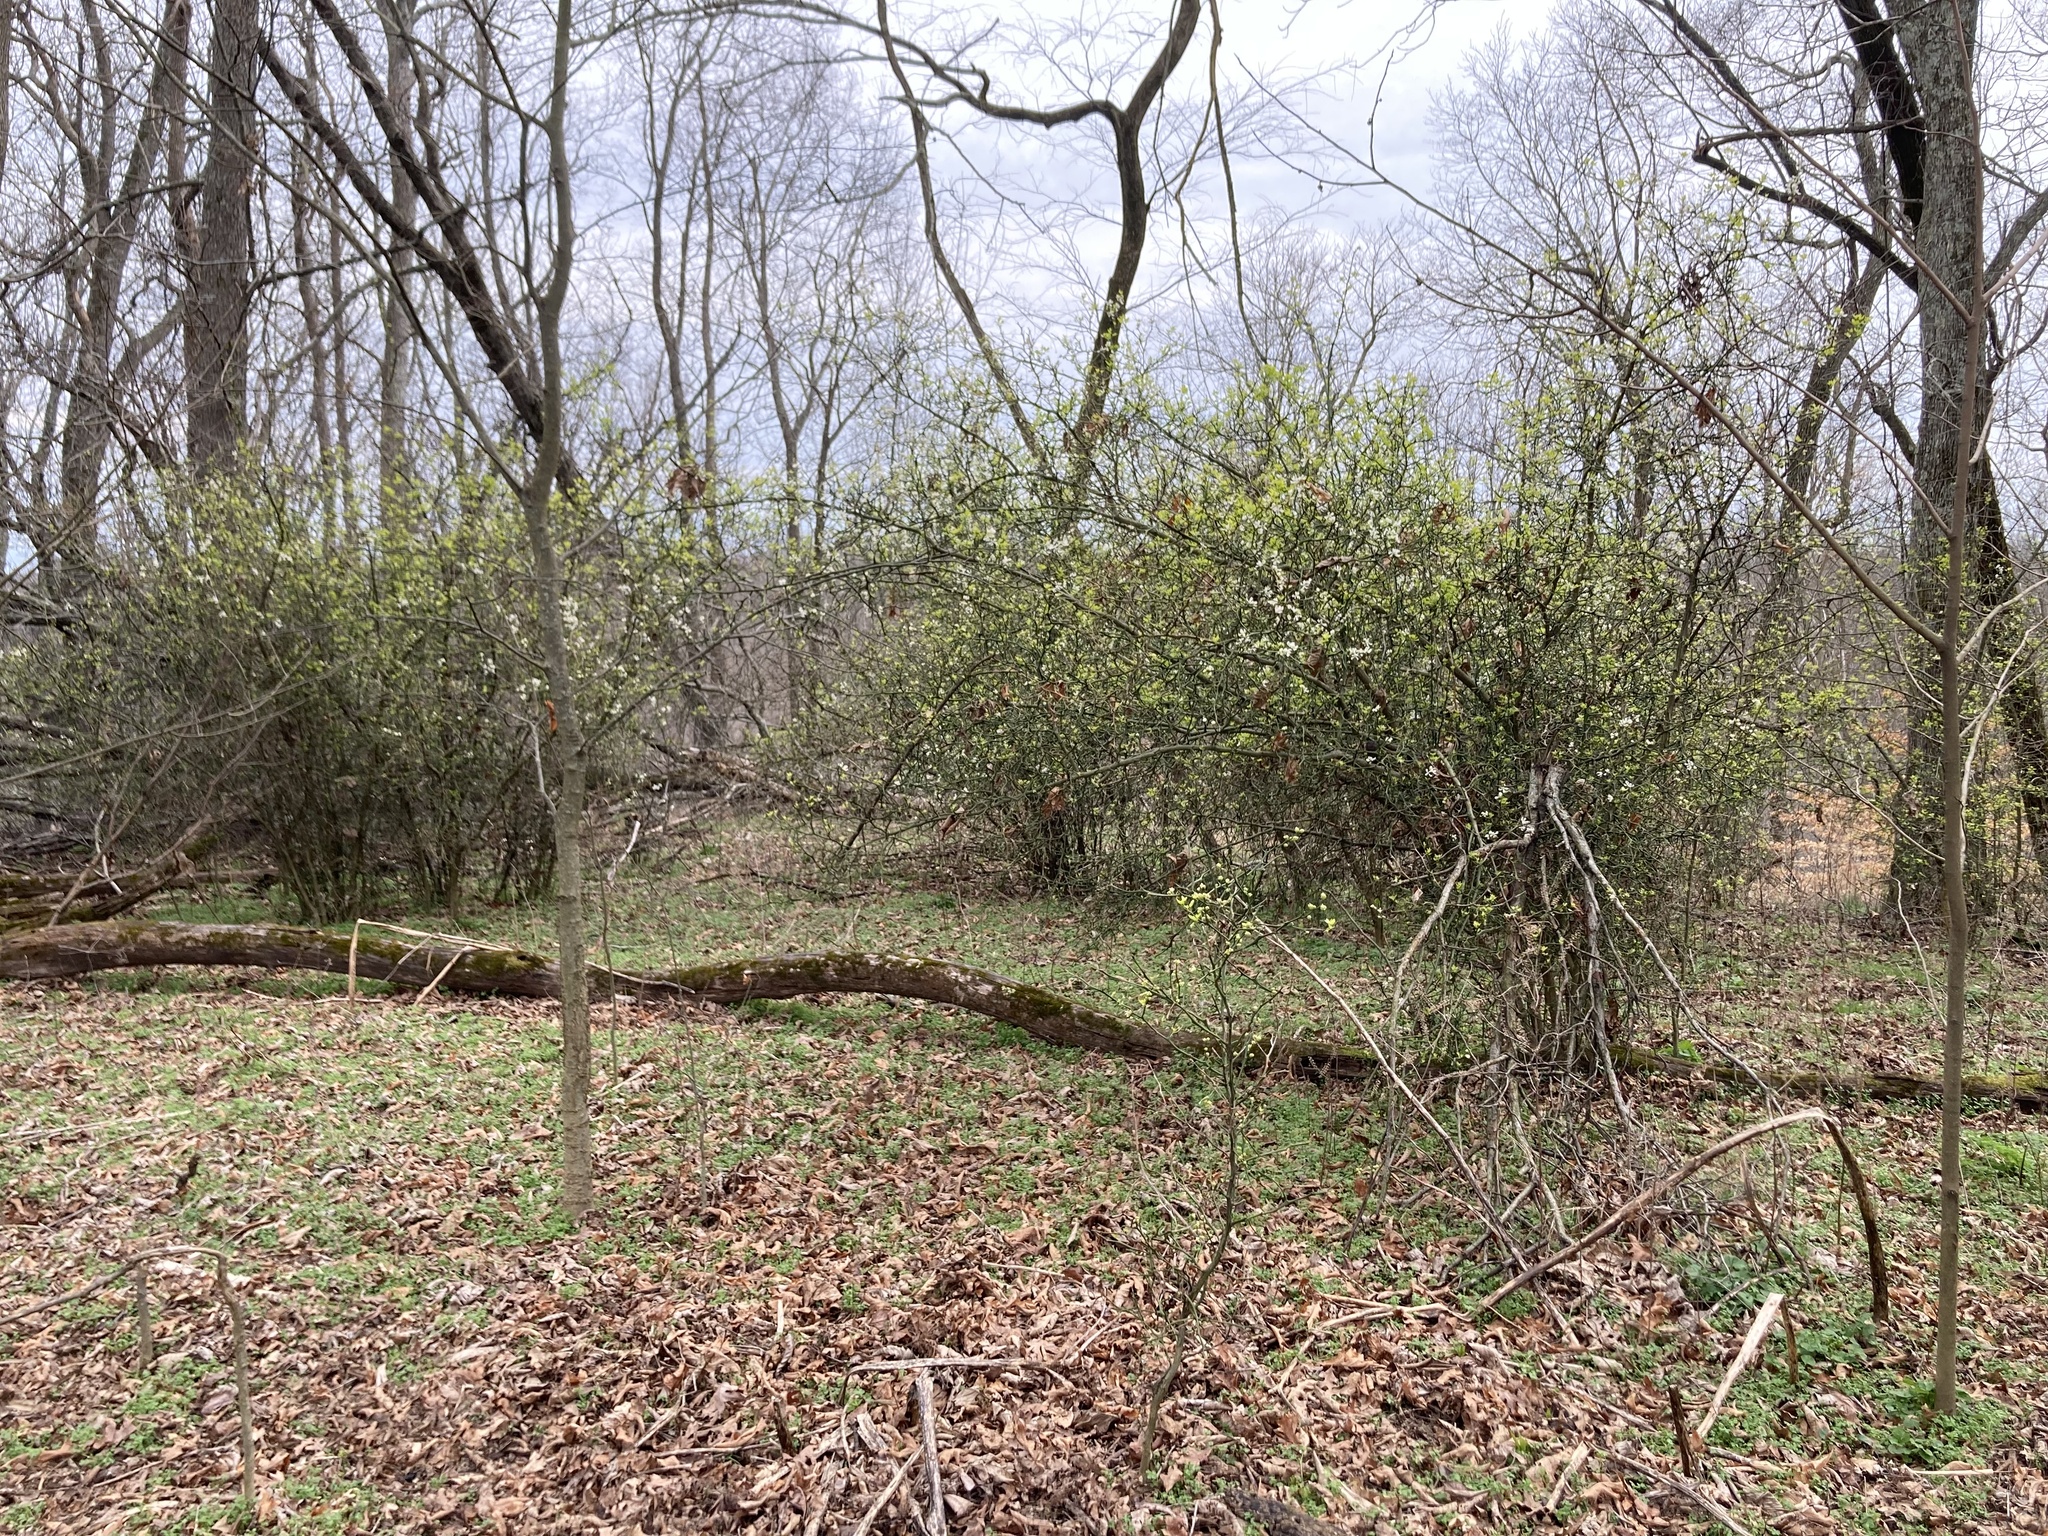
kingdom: Plantae
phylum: Tracheophyta
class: Magnoliopsida
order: Sapindales
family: Rutaceae
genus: Citrus
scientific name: Citrus trifoliata
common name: Japanese bitter-orange
